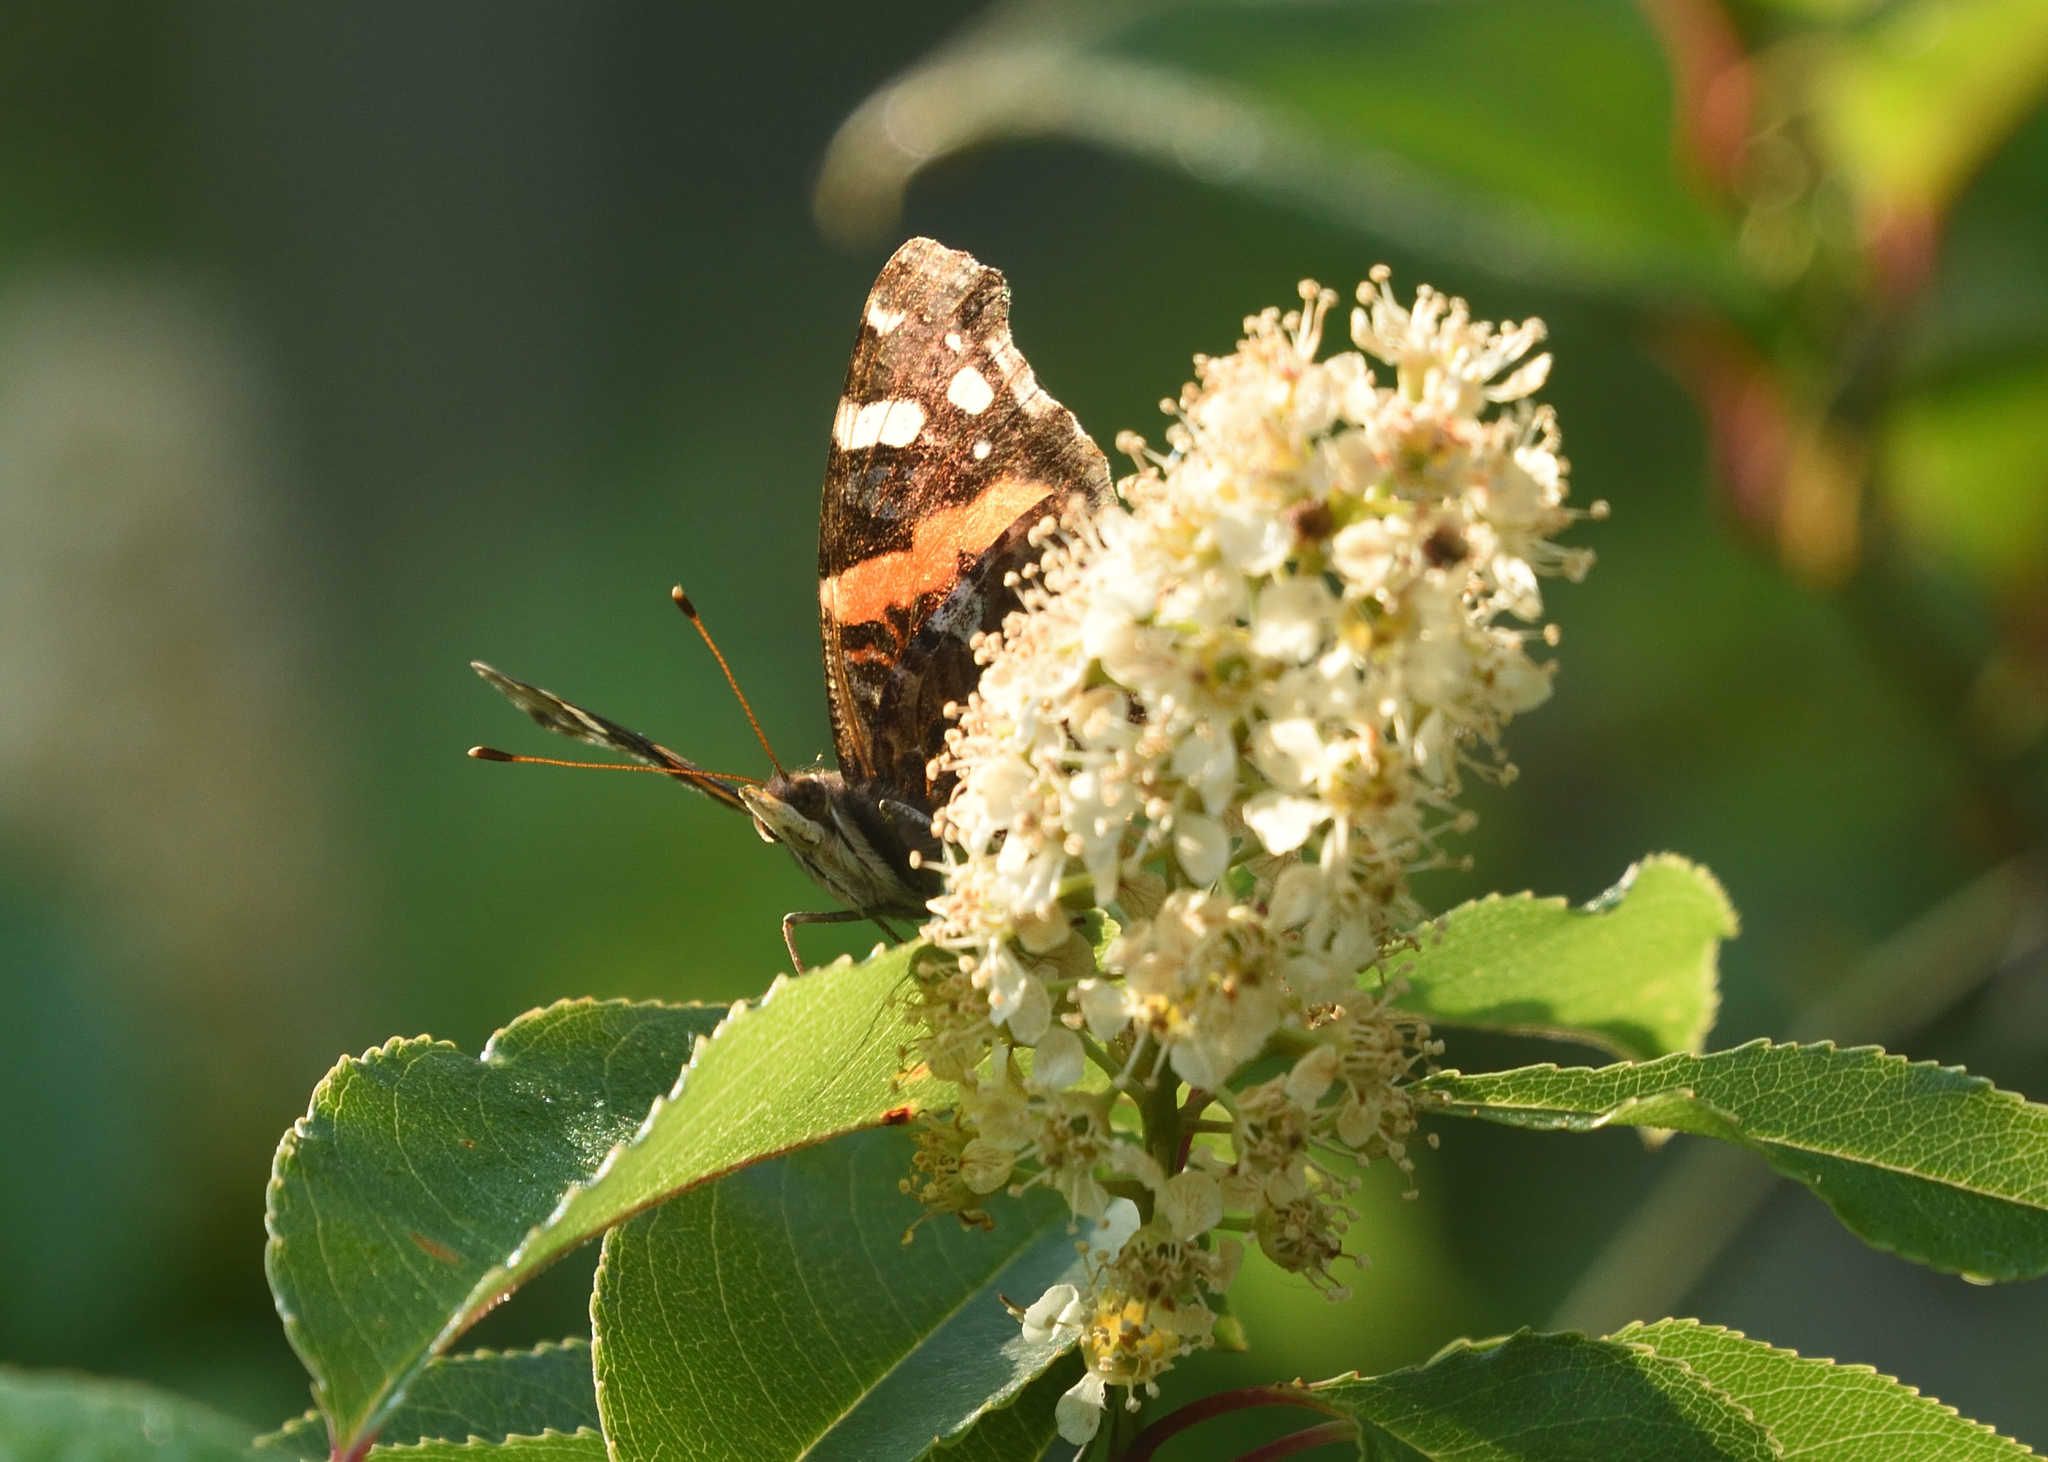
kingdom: Animalia
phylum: Arthropoda
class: Insecta
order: Lepidoptera
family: Nymphalidae
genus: Vanessa
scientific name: Vanessa atalanta
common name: Red admiral
